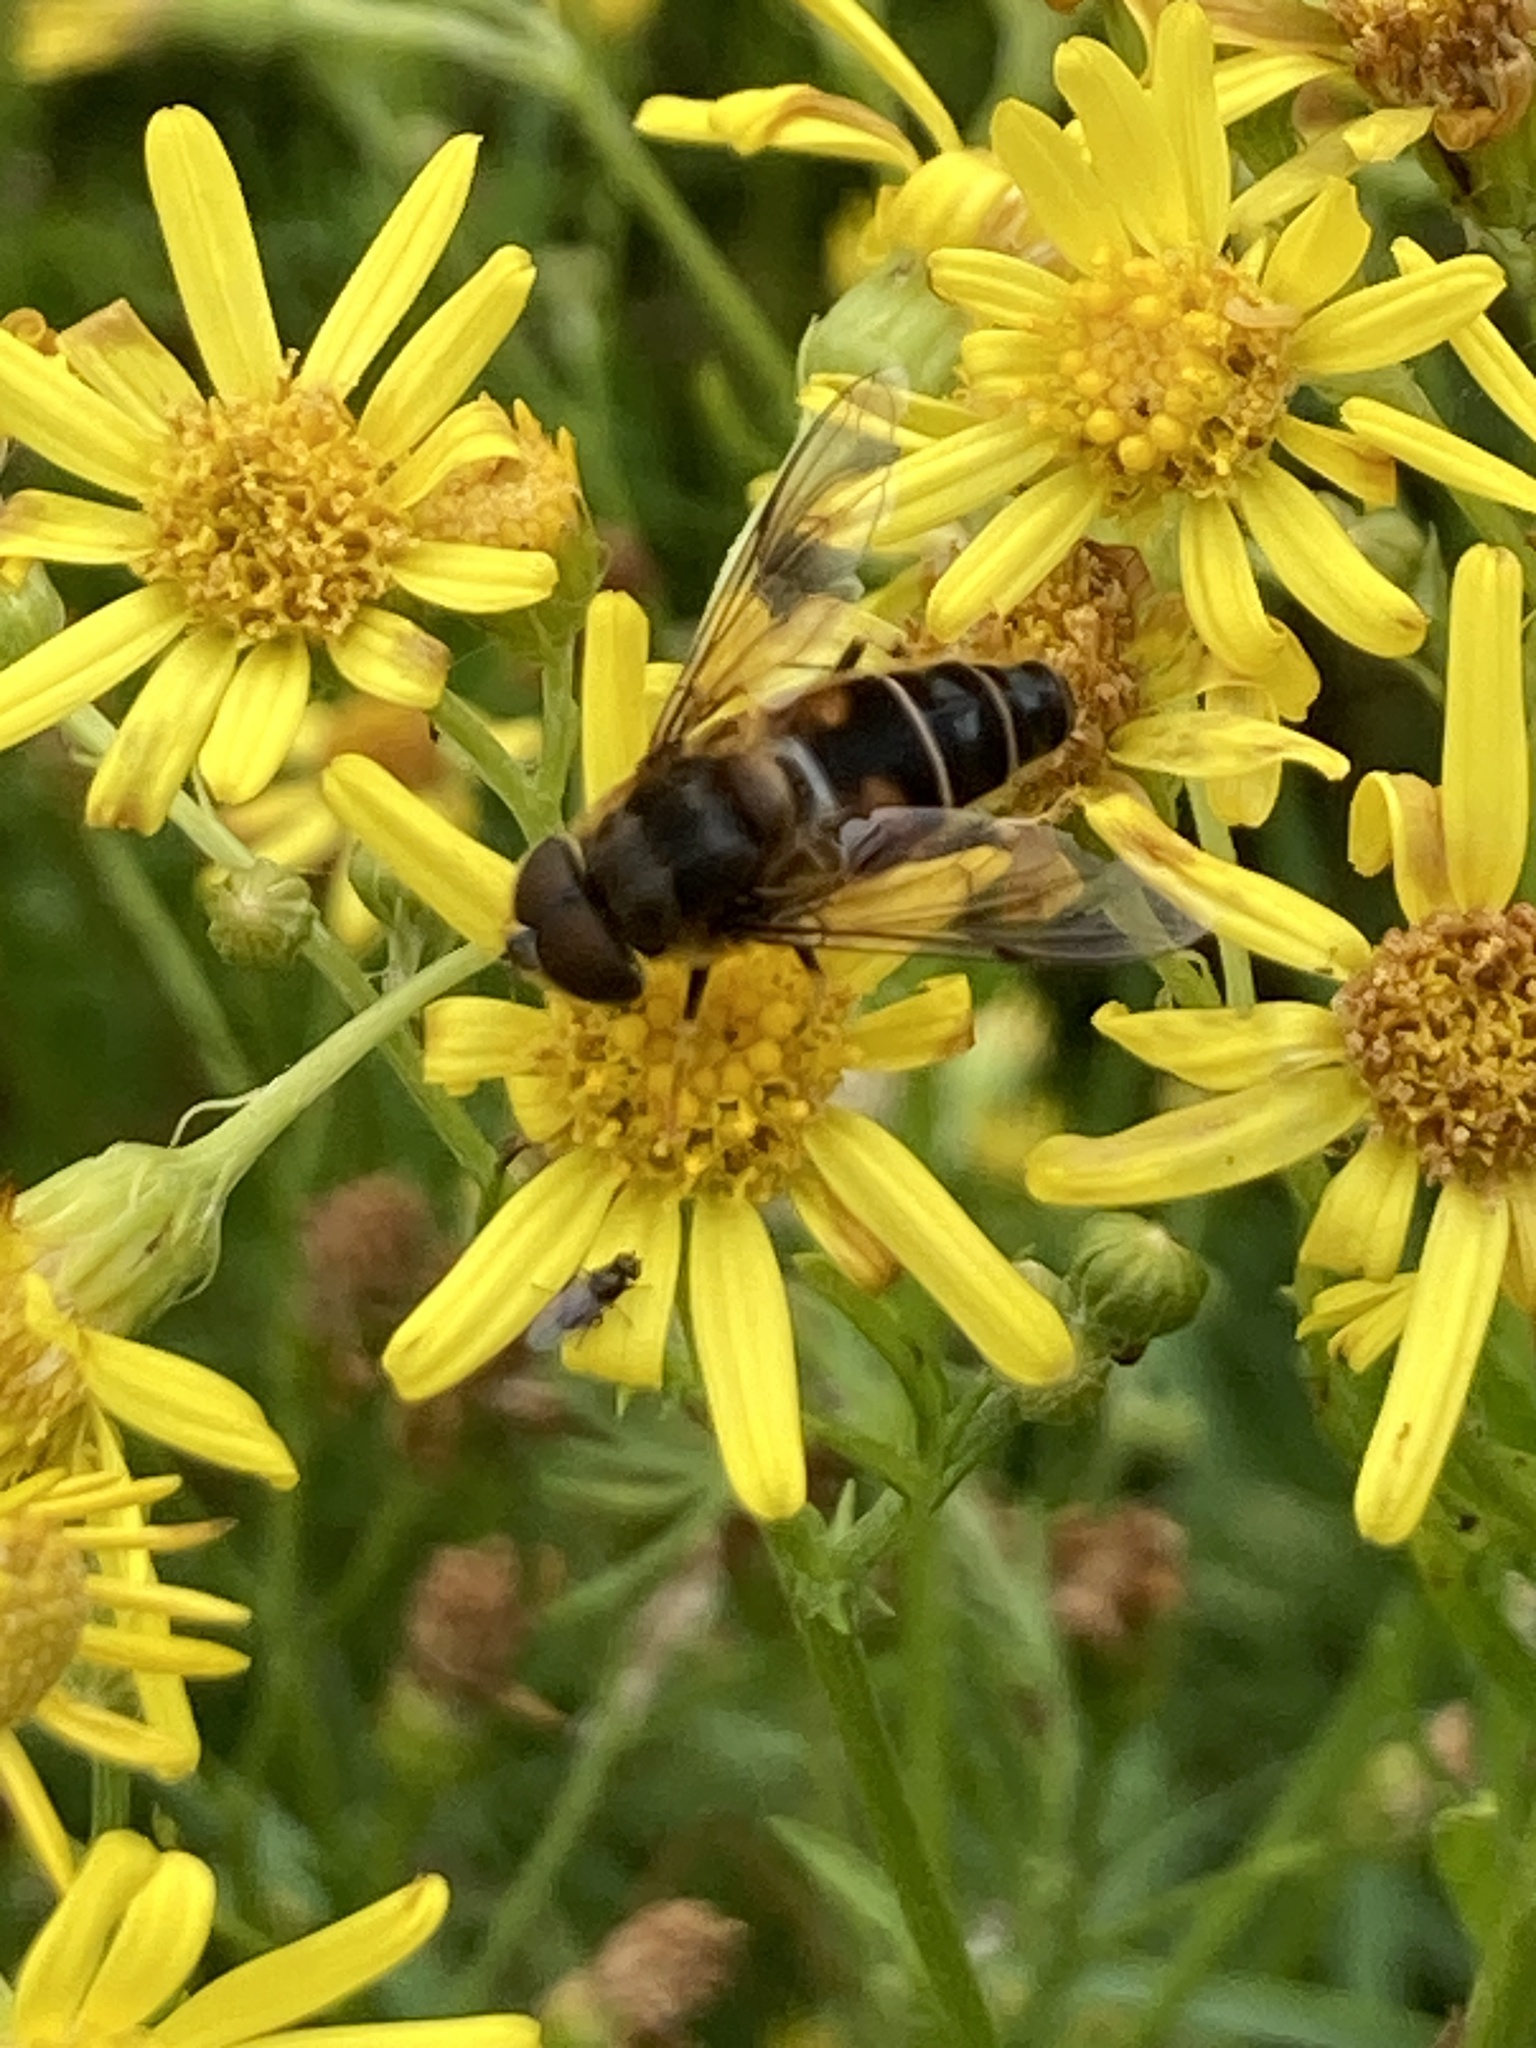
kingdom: Animalia
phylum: Arthropoda
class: Insecta
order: Diptera
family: Syrphidae
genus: Eristalis
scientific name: Eristalis pertinax
